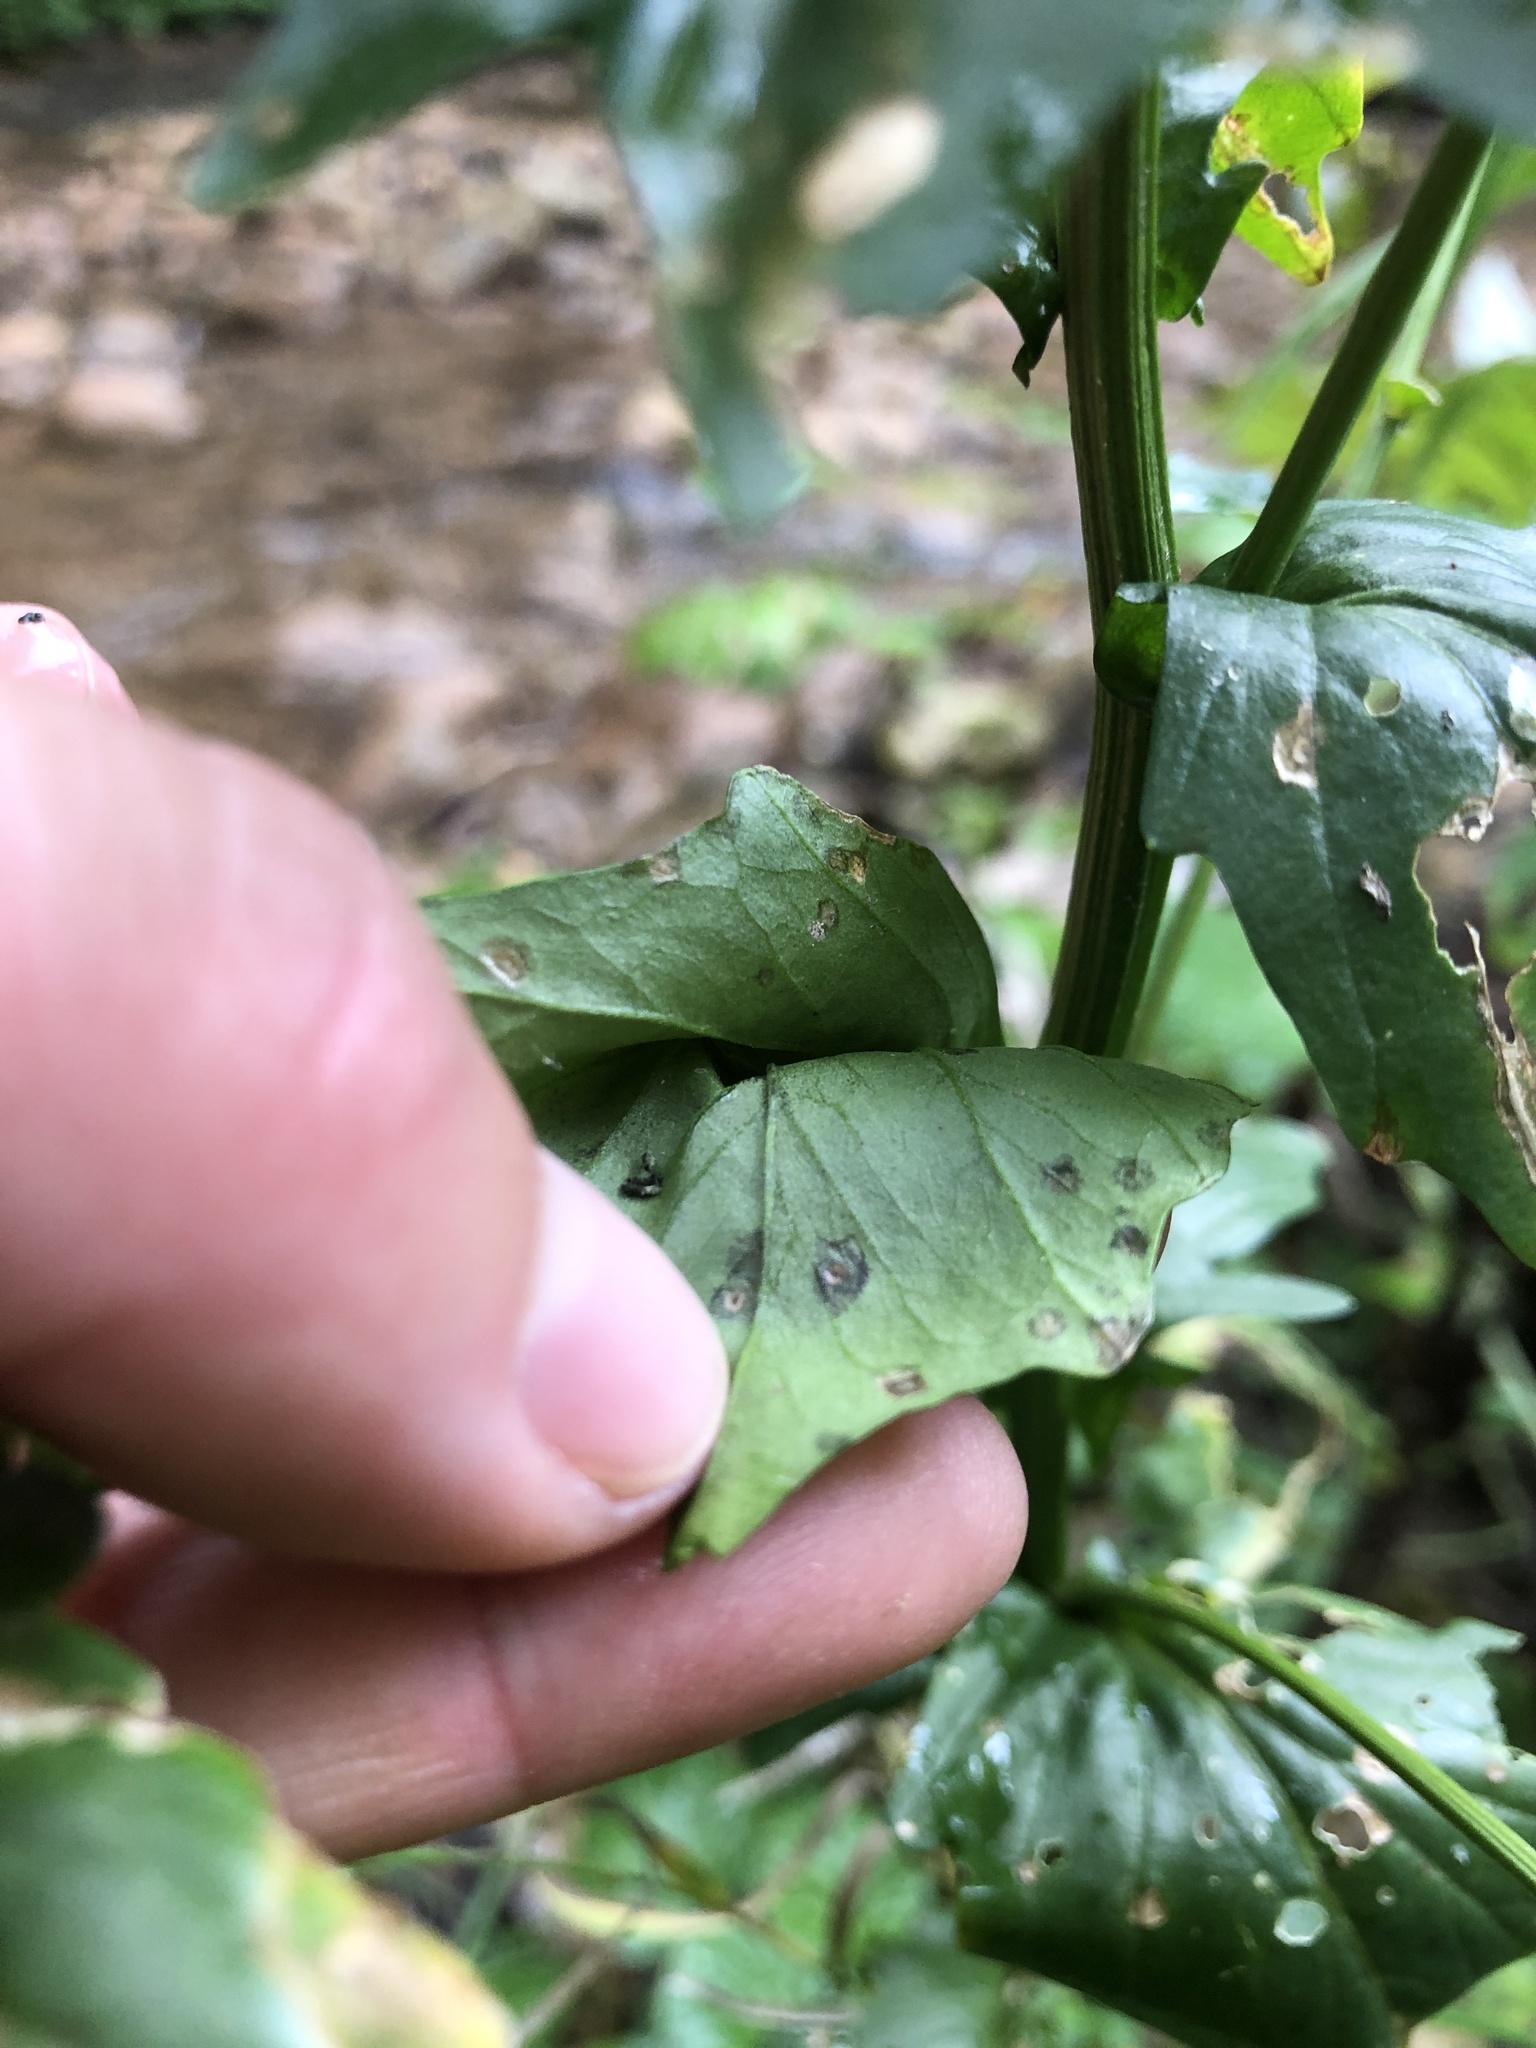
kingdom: Plantae
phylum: Tracheophyta
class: Magnoliopsida
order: Brassicales
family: Brassicaceae
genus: Barbarea
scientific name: Barbarea vulgaris
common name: Cressy-greens
